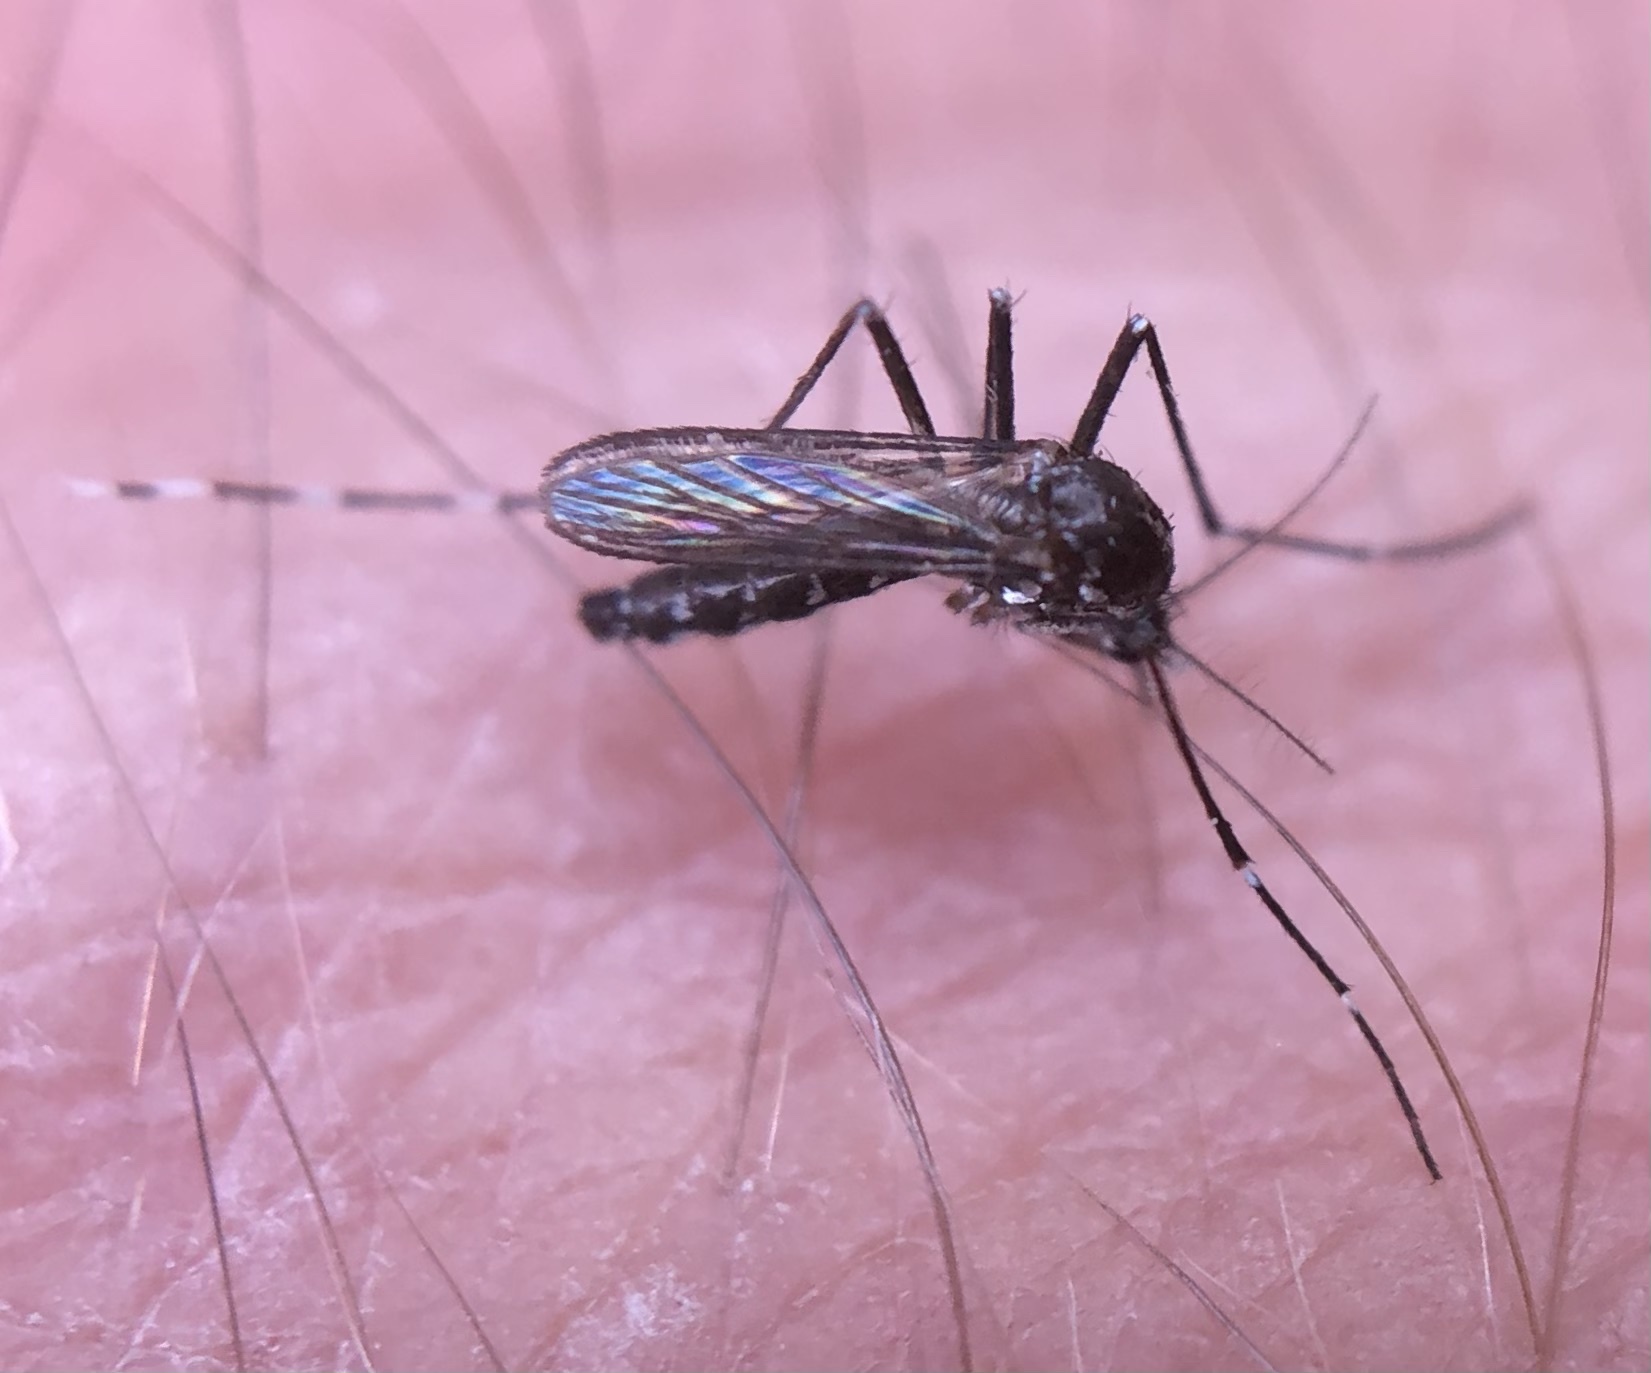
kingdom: Animalia
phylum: Arthropoda
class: Insecta
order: Diptera
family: Culicidae
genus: Aedes
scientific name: Aedes albopictus
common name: Tiger mosquito
